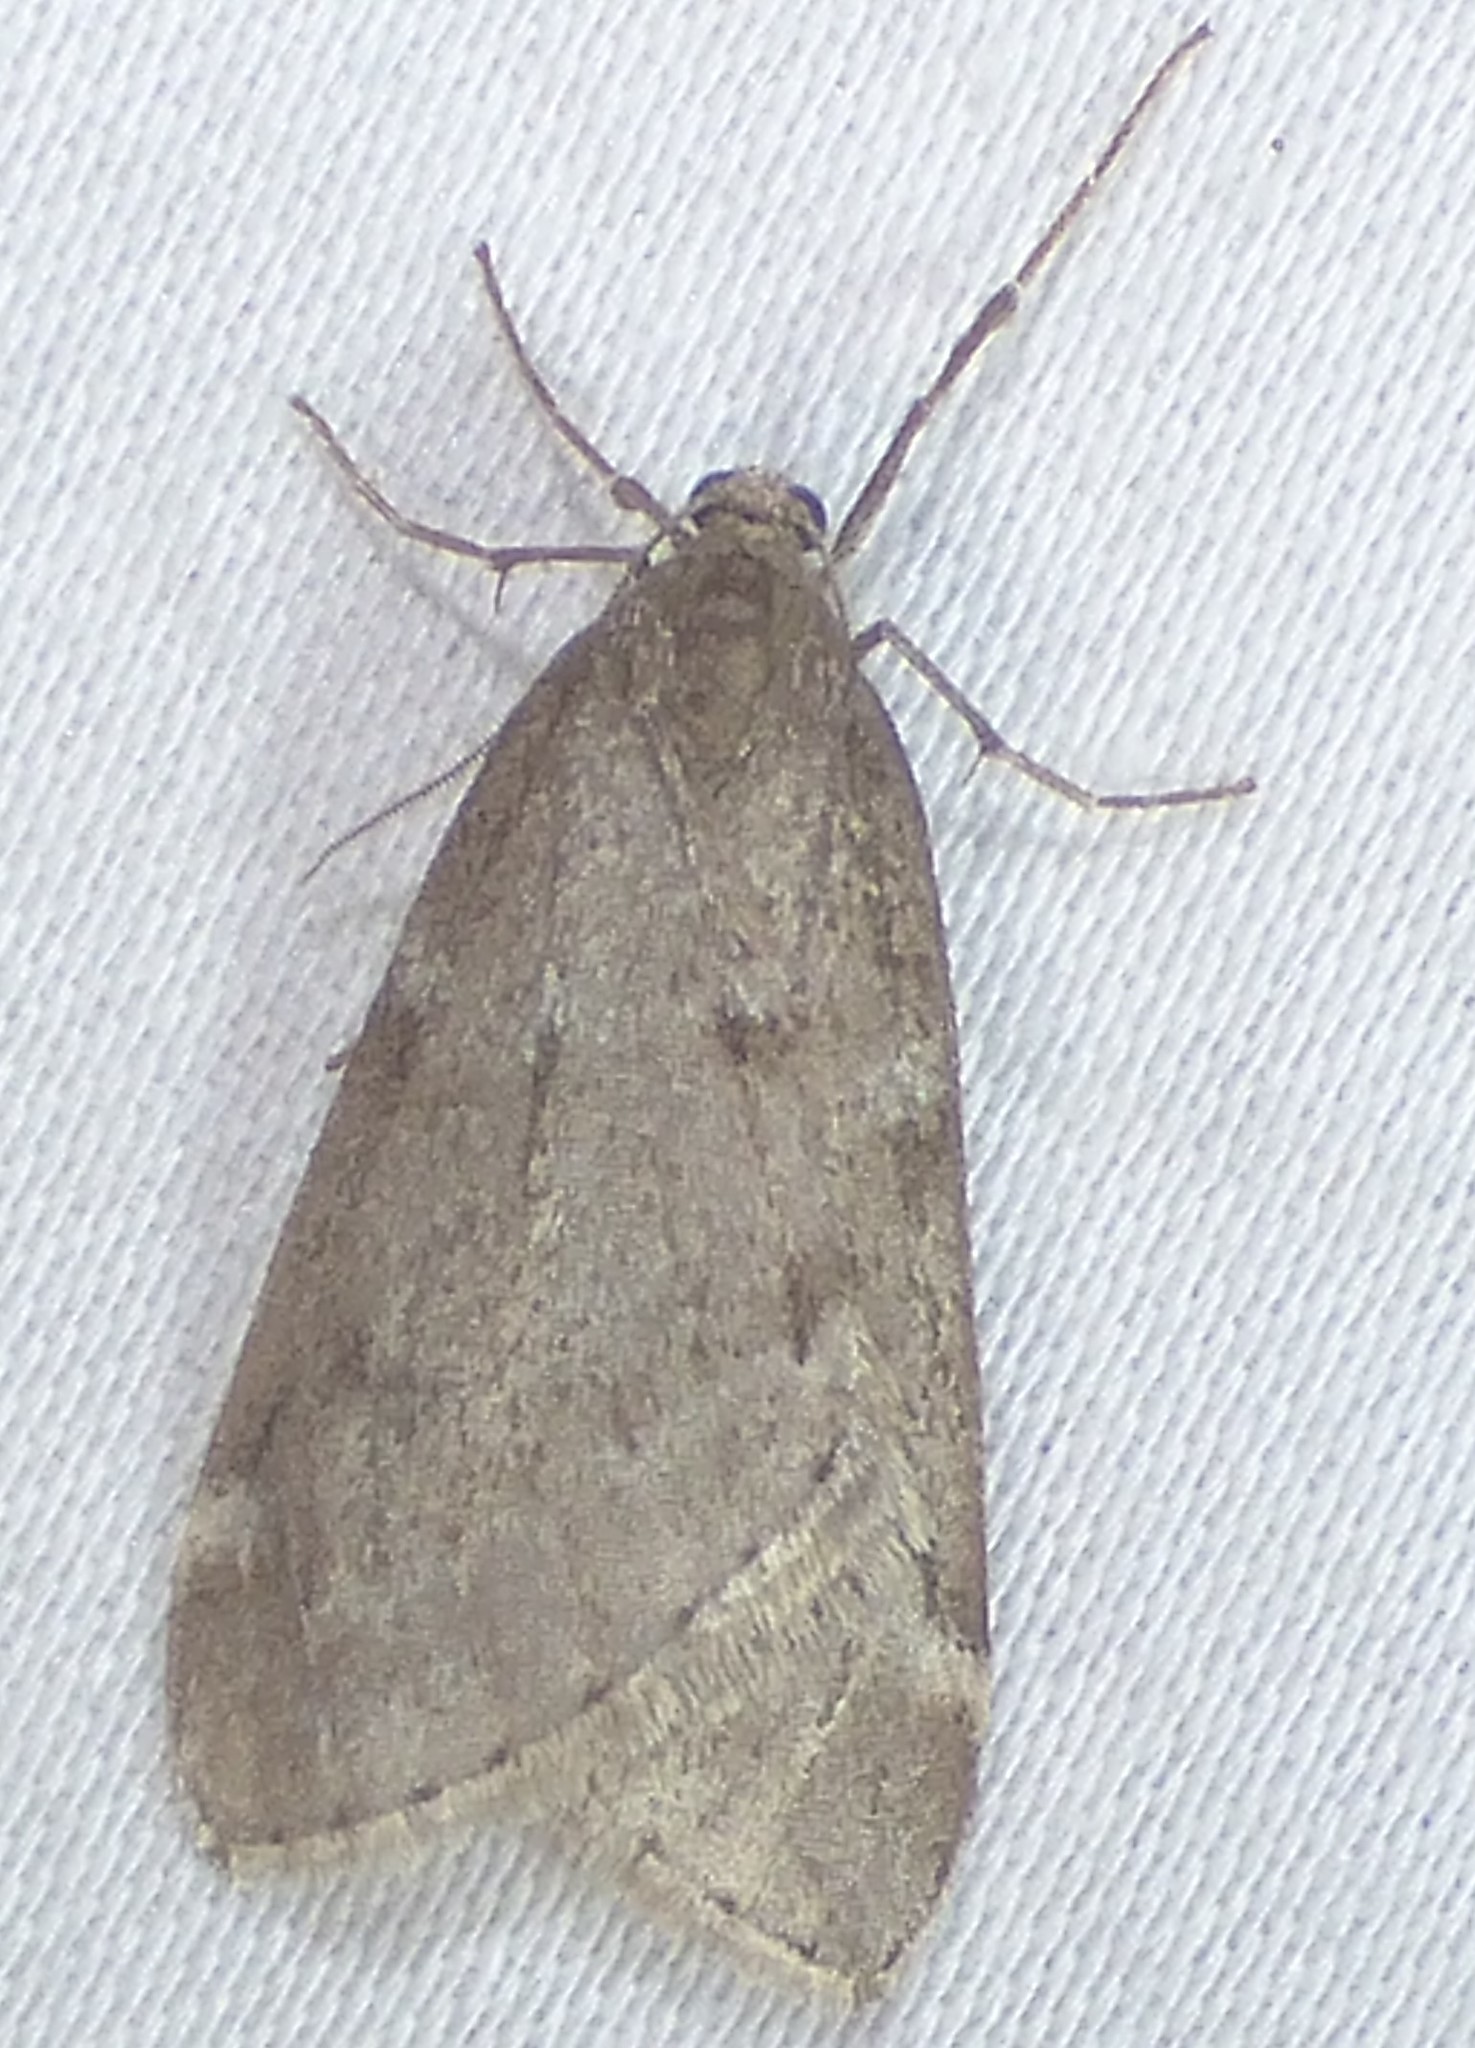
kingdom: Animalia
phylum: Arthropoda
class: Insecta
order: Lepidoptera
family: Geometridae
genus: Alsophila
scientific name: Alsophila pometaria
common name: Fall cankerworm
